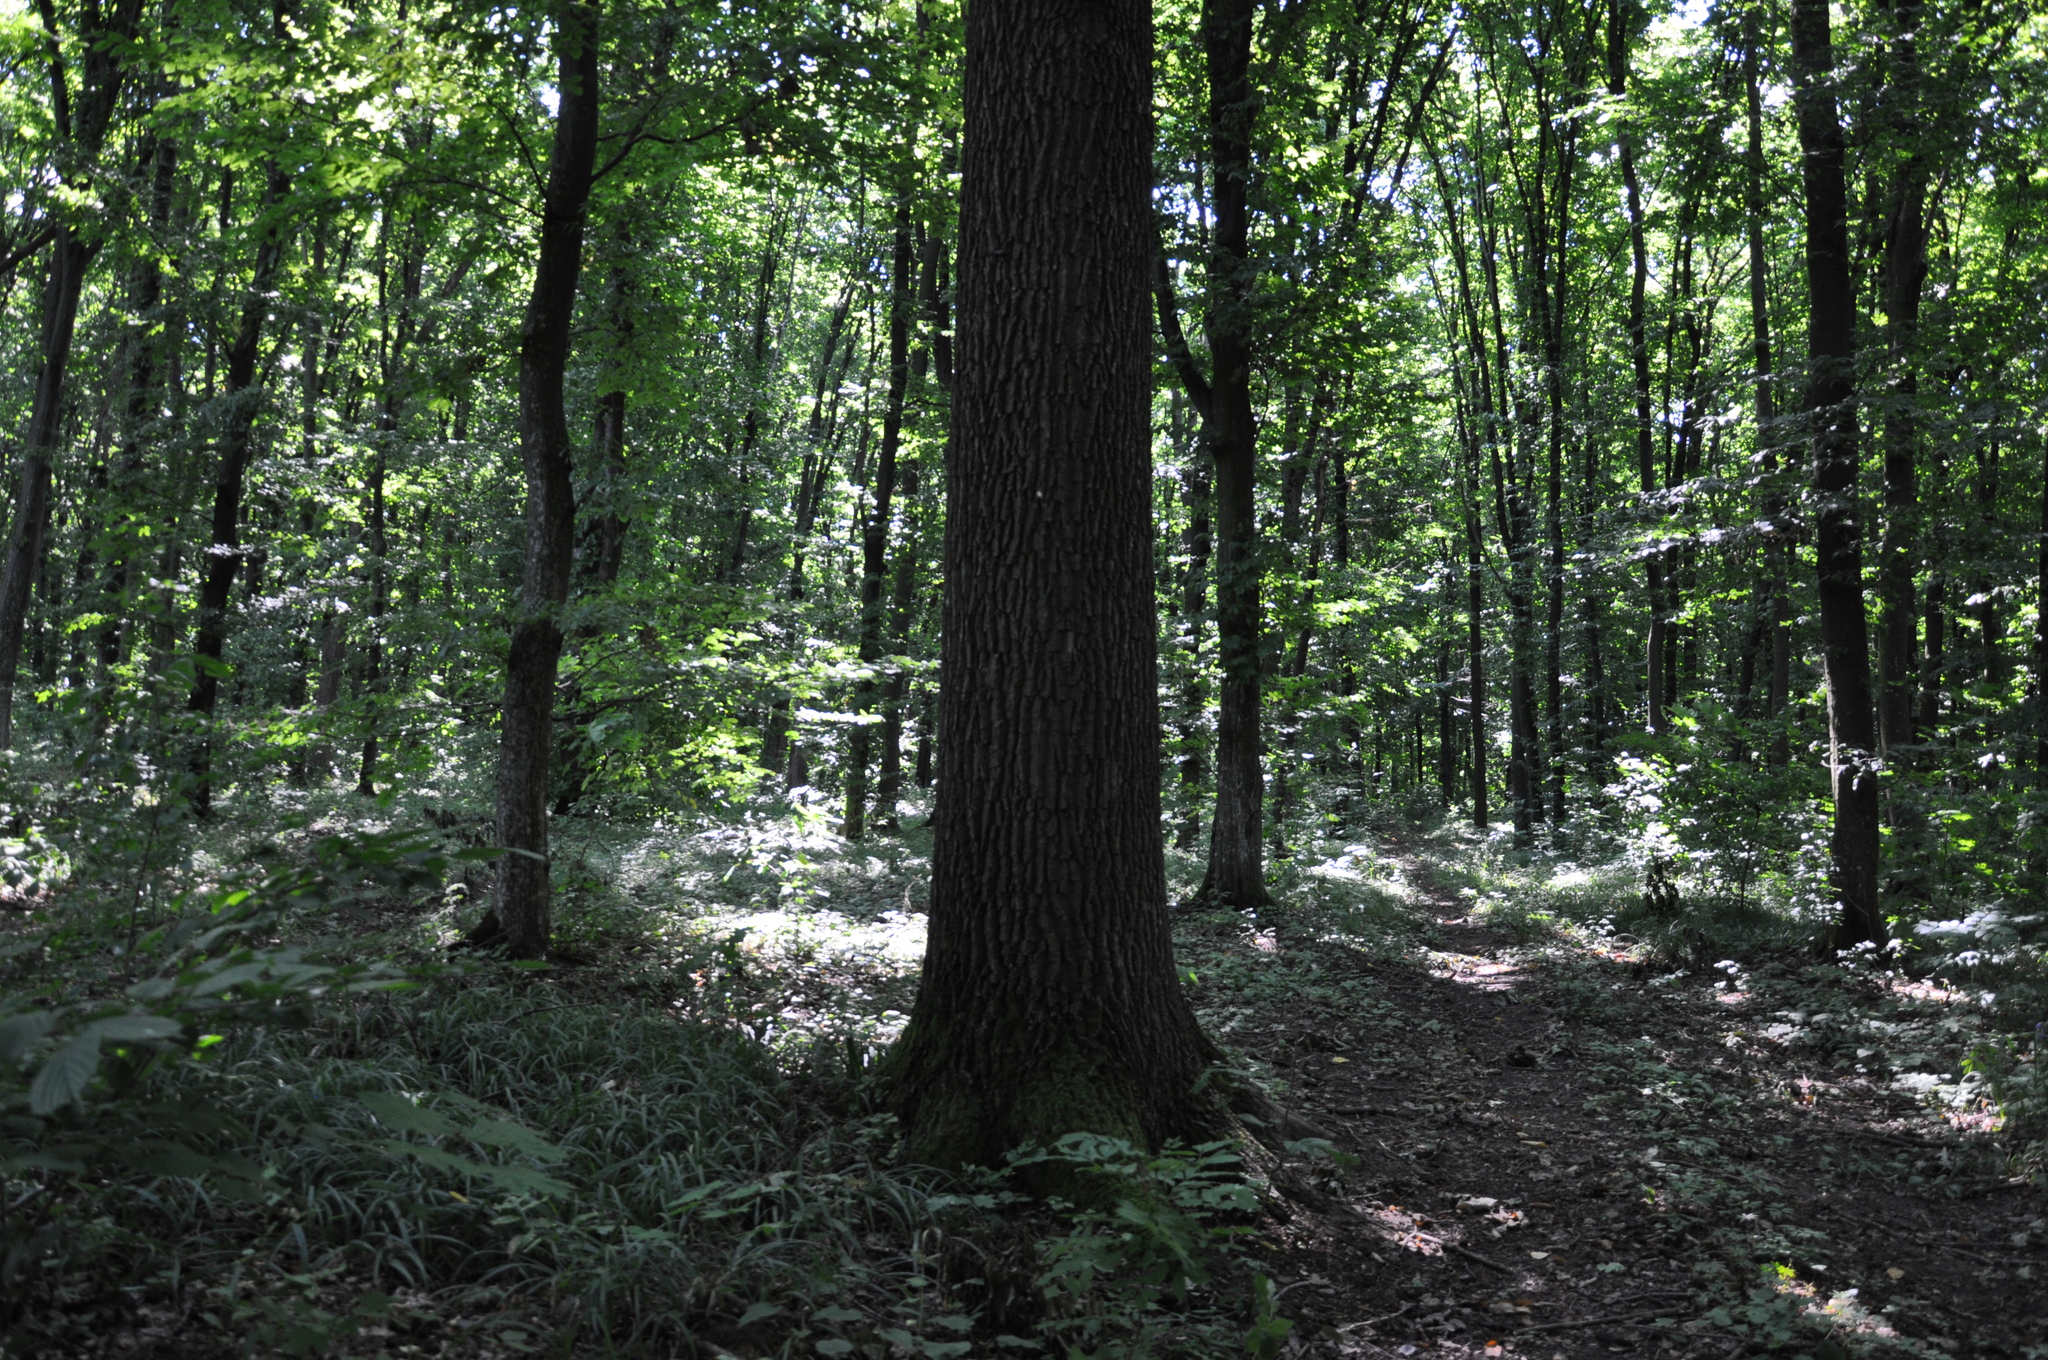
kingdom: Plantae
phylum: Tracheophyta
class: Magnoliopsida
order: Fagales
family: Fagaceae
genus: Quercus
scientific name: Quercus robur
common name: Pedunculate oak
